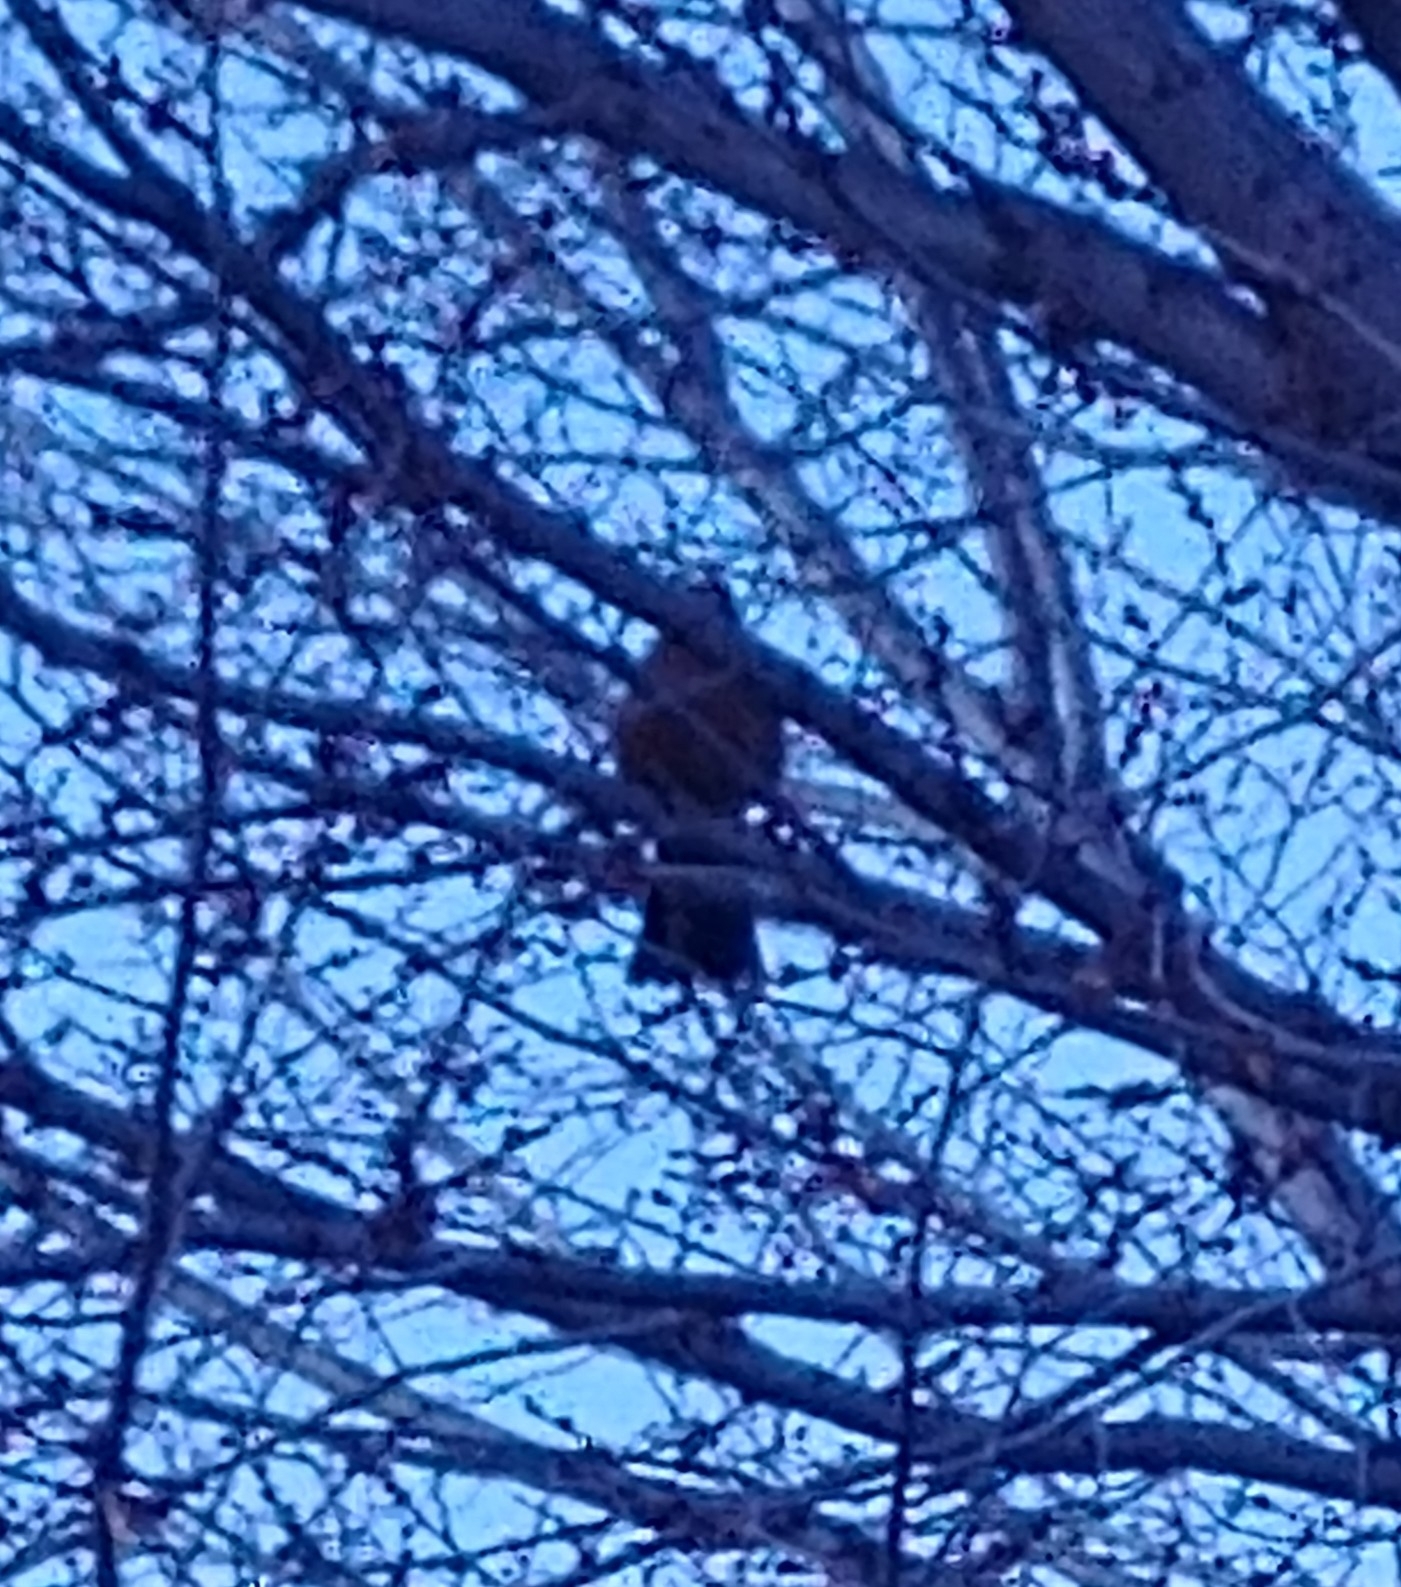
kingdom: Animalia
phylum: Chordata
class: Aves
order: Passeriformes
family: Turdidae
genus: Turdus
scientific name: Turdus migratorius
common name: American robin
